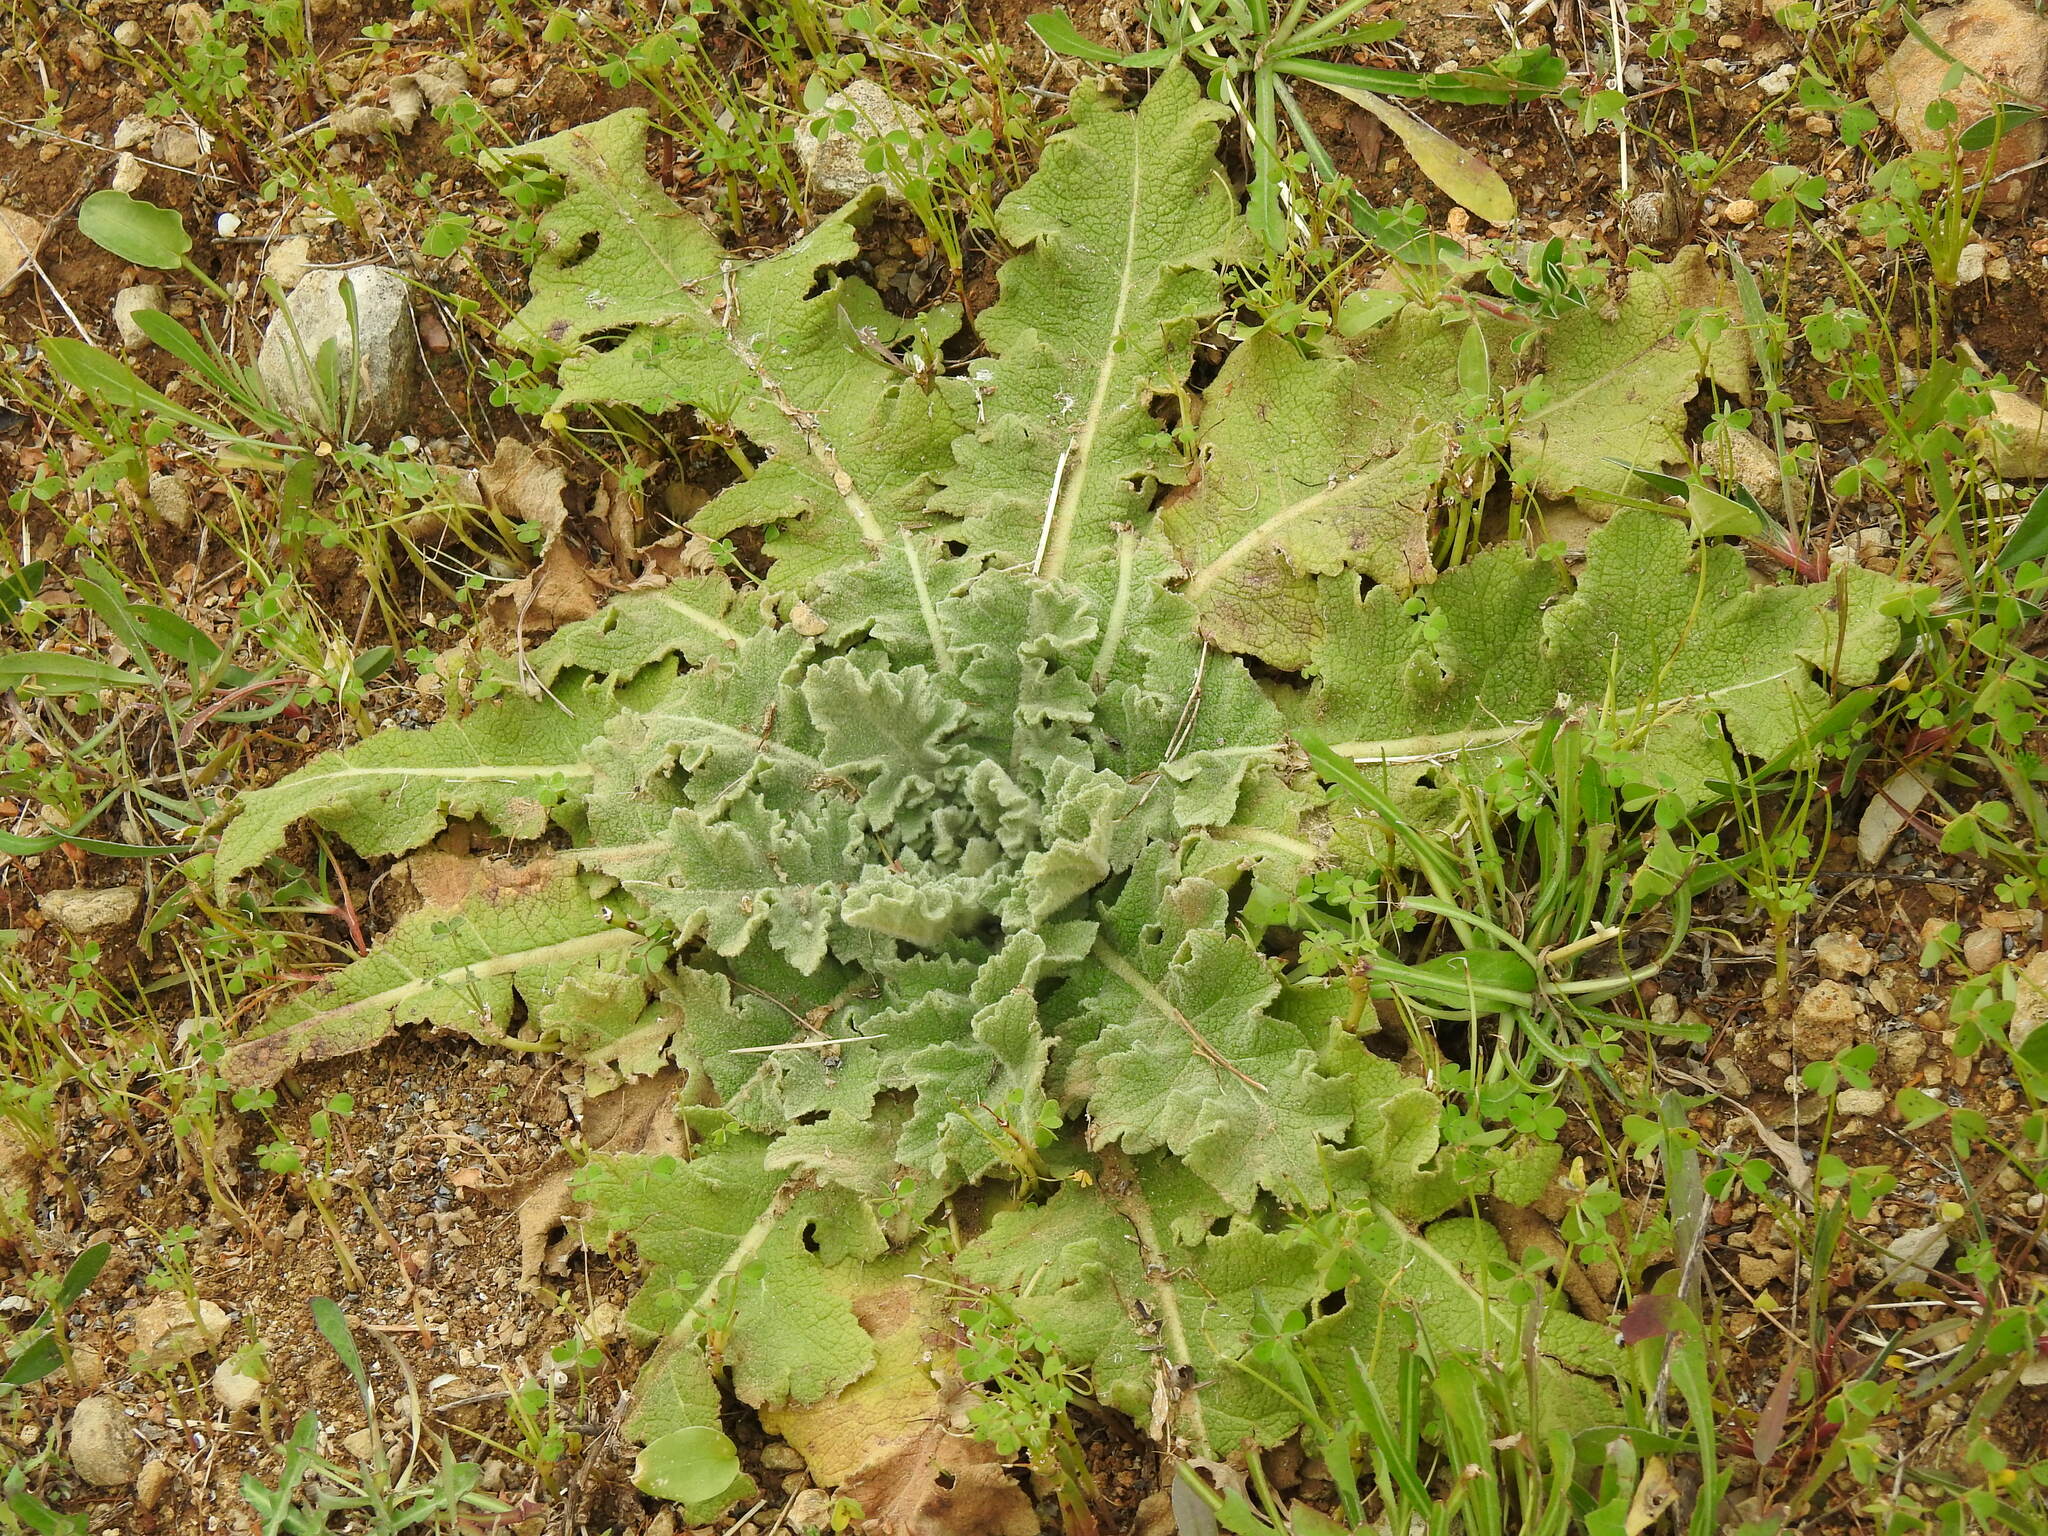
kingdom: Plantae
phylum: Tracheophyta
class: Magnoliopsida
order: Lamiales
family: Scrophulariaceae
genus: Verbascum
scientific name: Verbascum sinuatum
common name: Wavyleaf mullein
